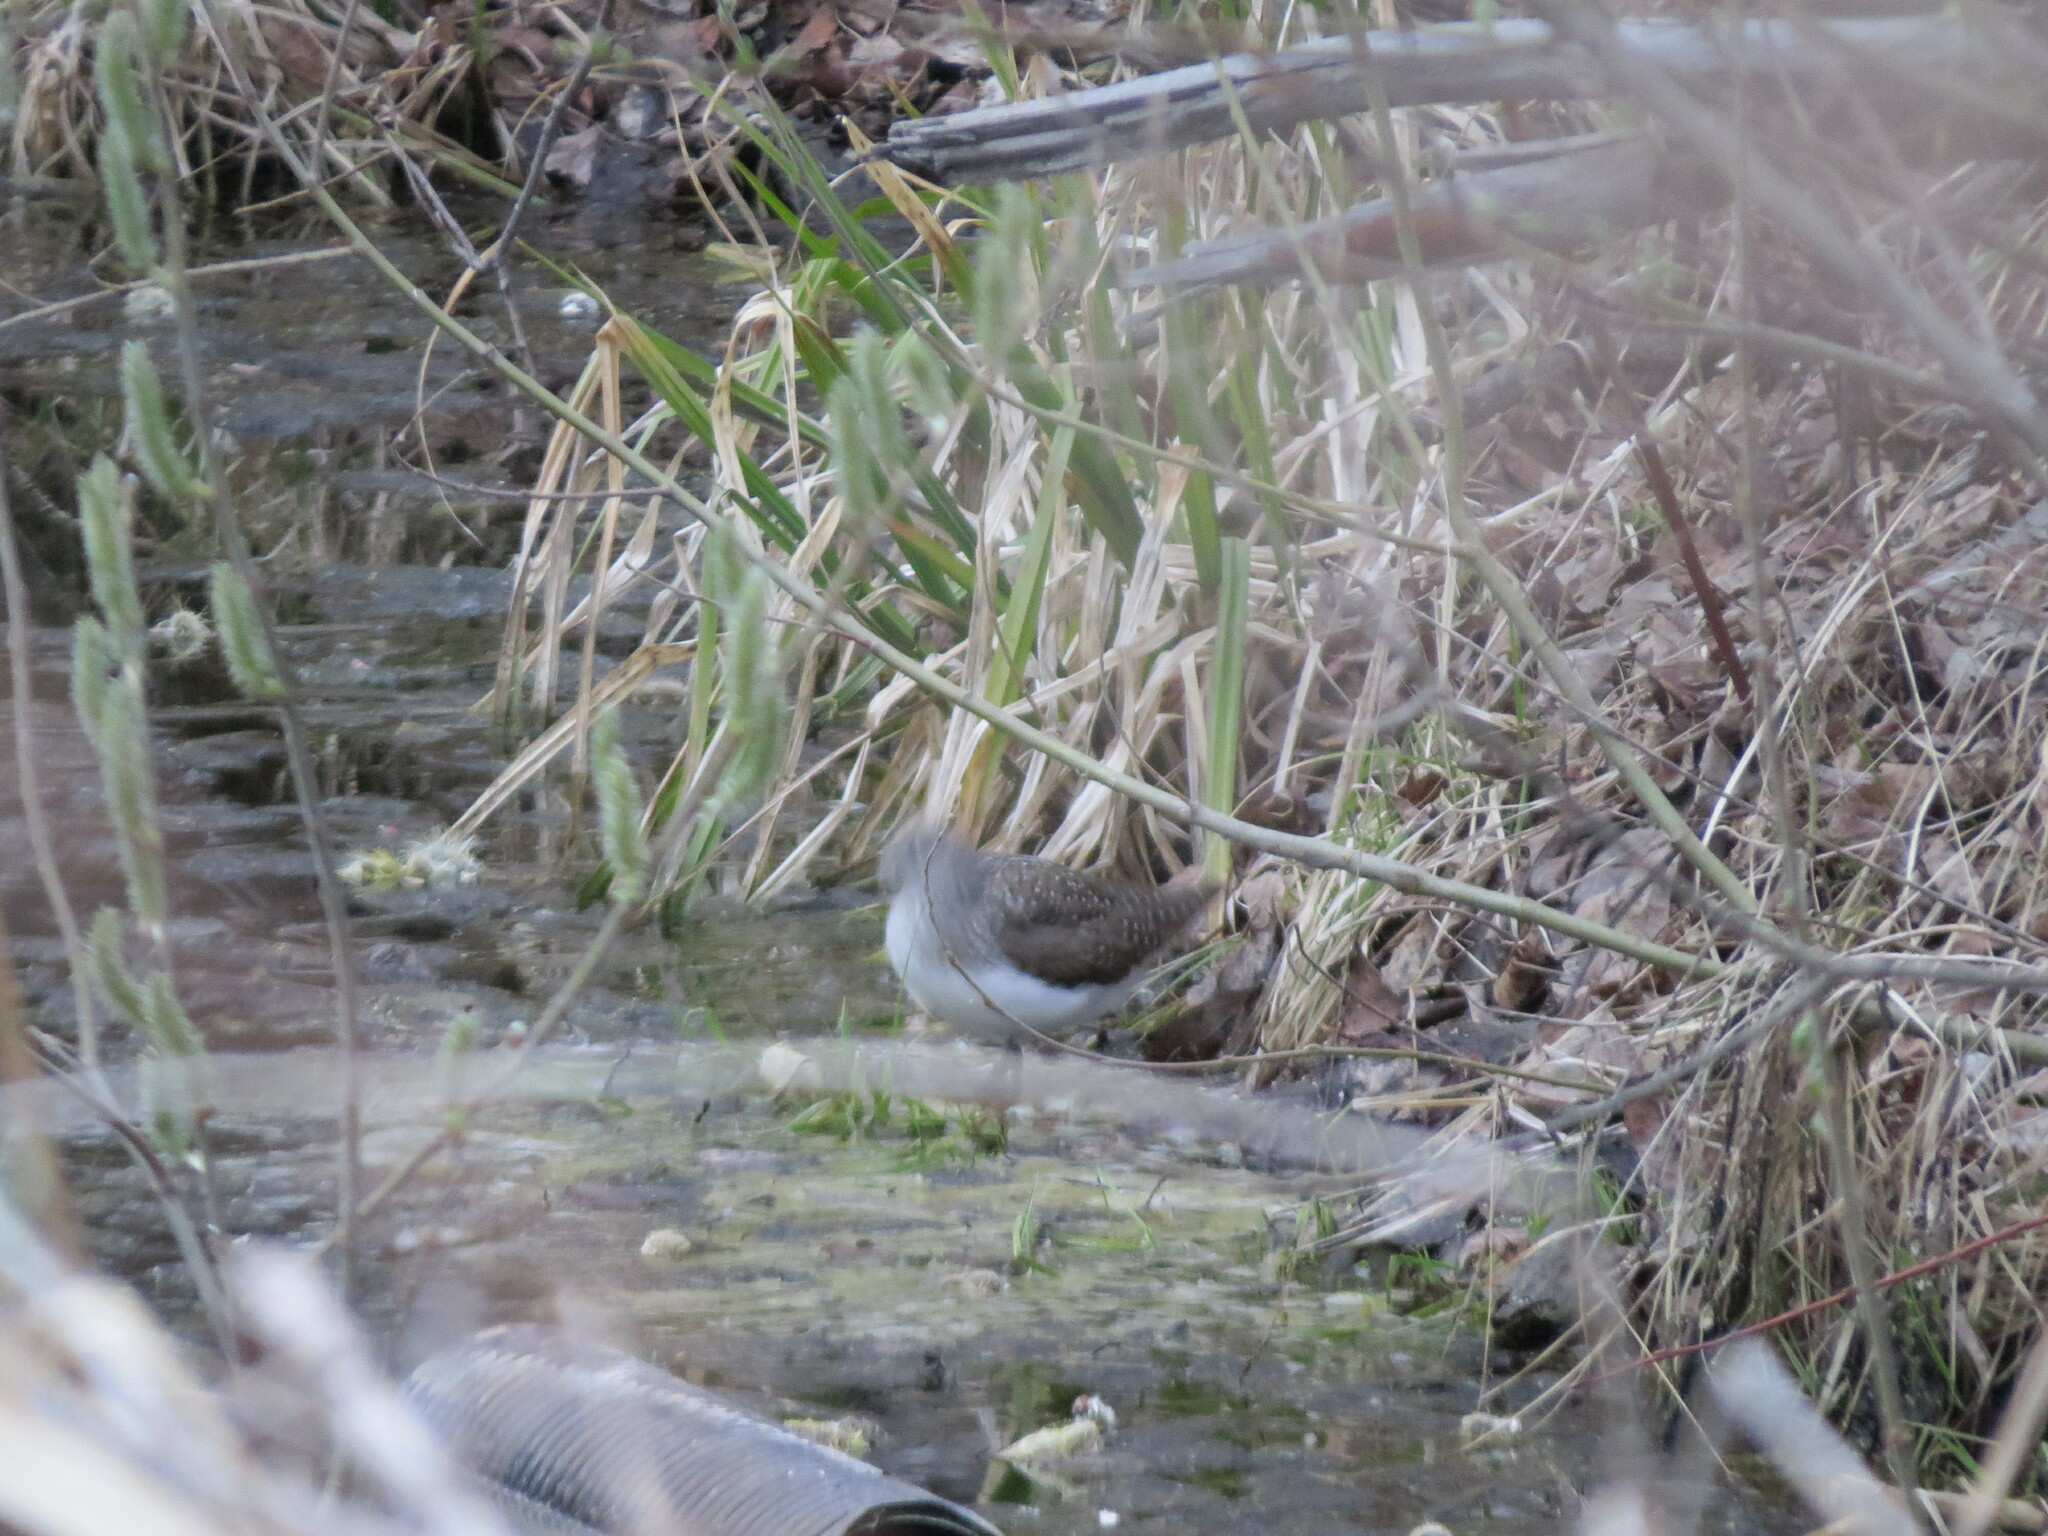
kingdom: Animalia
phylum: Chordata
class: Aves
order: Charadriiformes
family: Scolopacidae
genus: Tringa
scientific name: Tringa ochropus
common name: Green sandpiper
